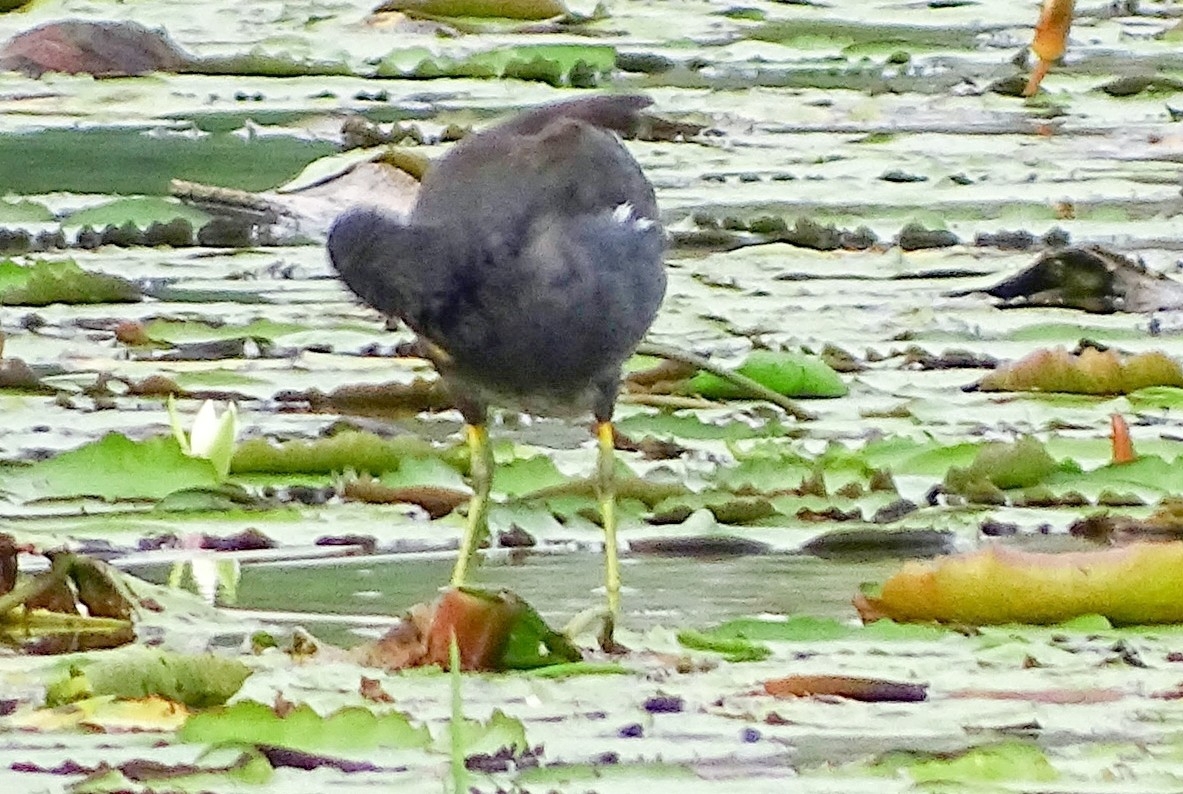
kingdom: Animalia
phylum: Chordata
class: Aves
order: Gruiformes
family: Rallidae
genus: Gallinula
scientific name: Gallinula chloropus
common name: Common moorhen
